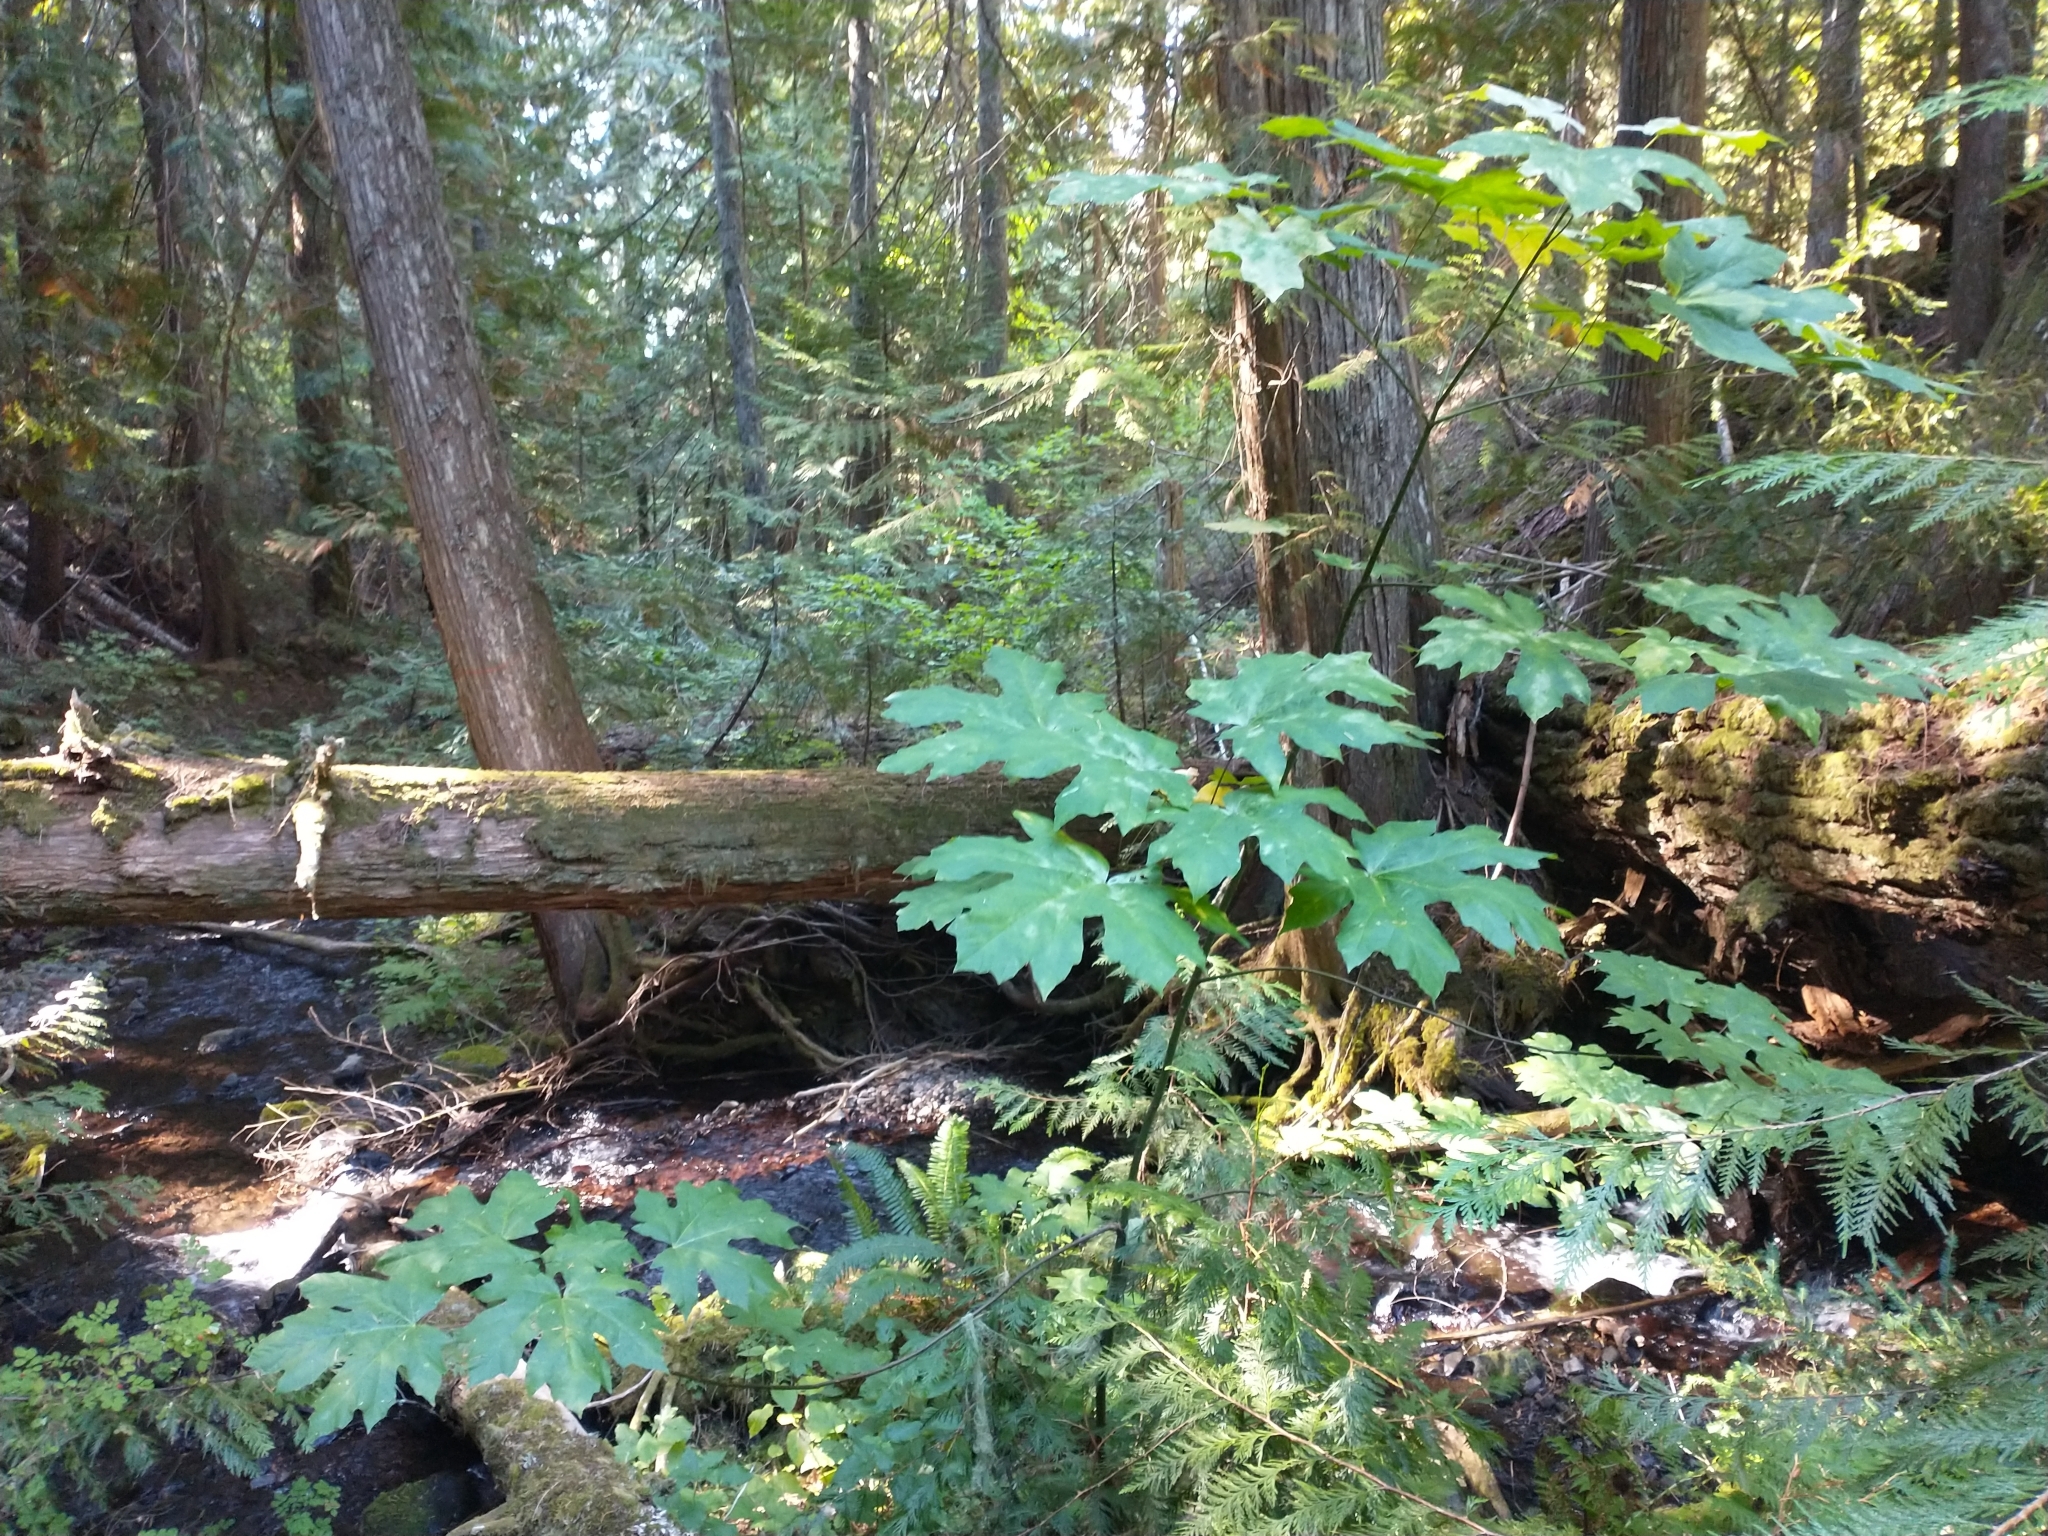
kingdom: Plantae
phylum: Tracheophyta
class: Magnoliopsida
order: Sapindales
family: Sapindaceae
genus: Acer
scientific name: Acer macrophyllum
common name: Oregon maple
